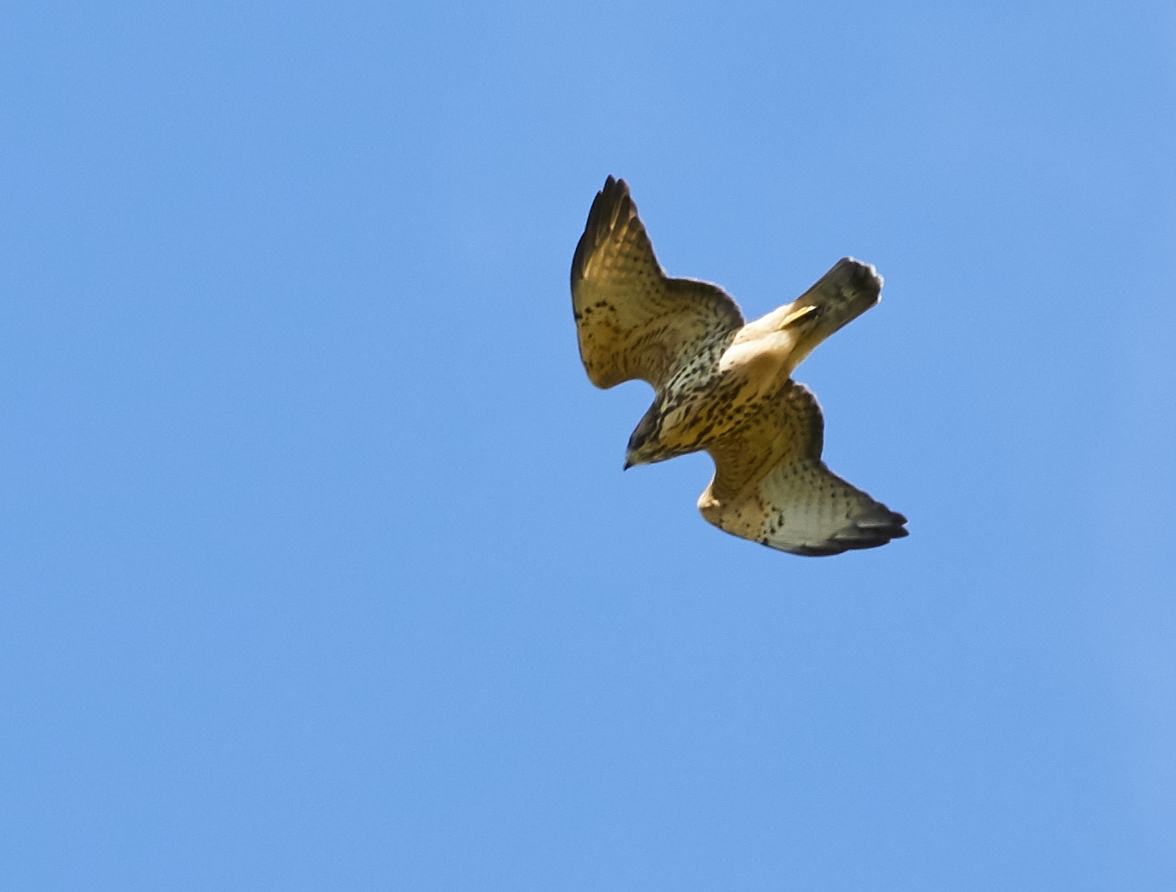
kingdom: Animalia
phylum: Chordata
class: Aves
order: Accipitriformes
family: Accipitridae
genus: Buteo
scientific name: Buteo platypterus
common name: Broad-winged hawk
